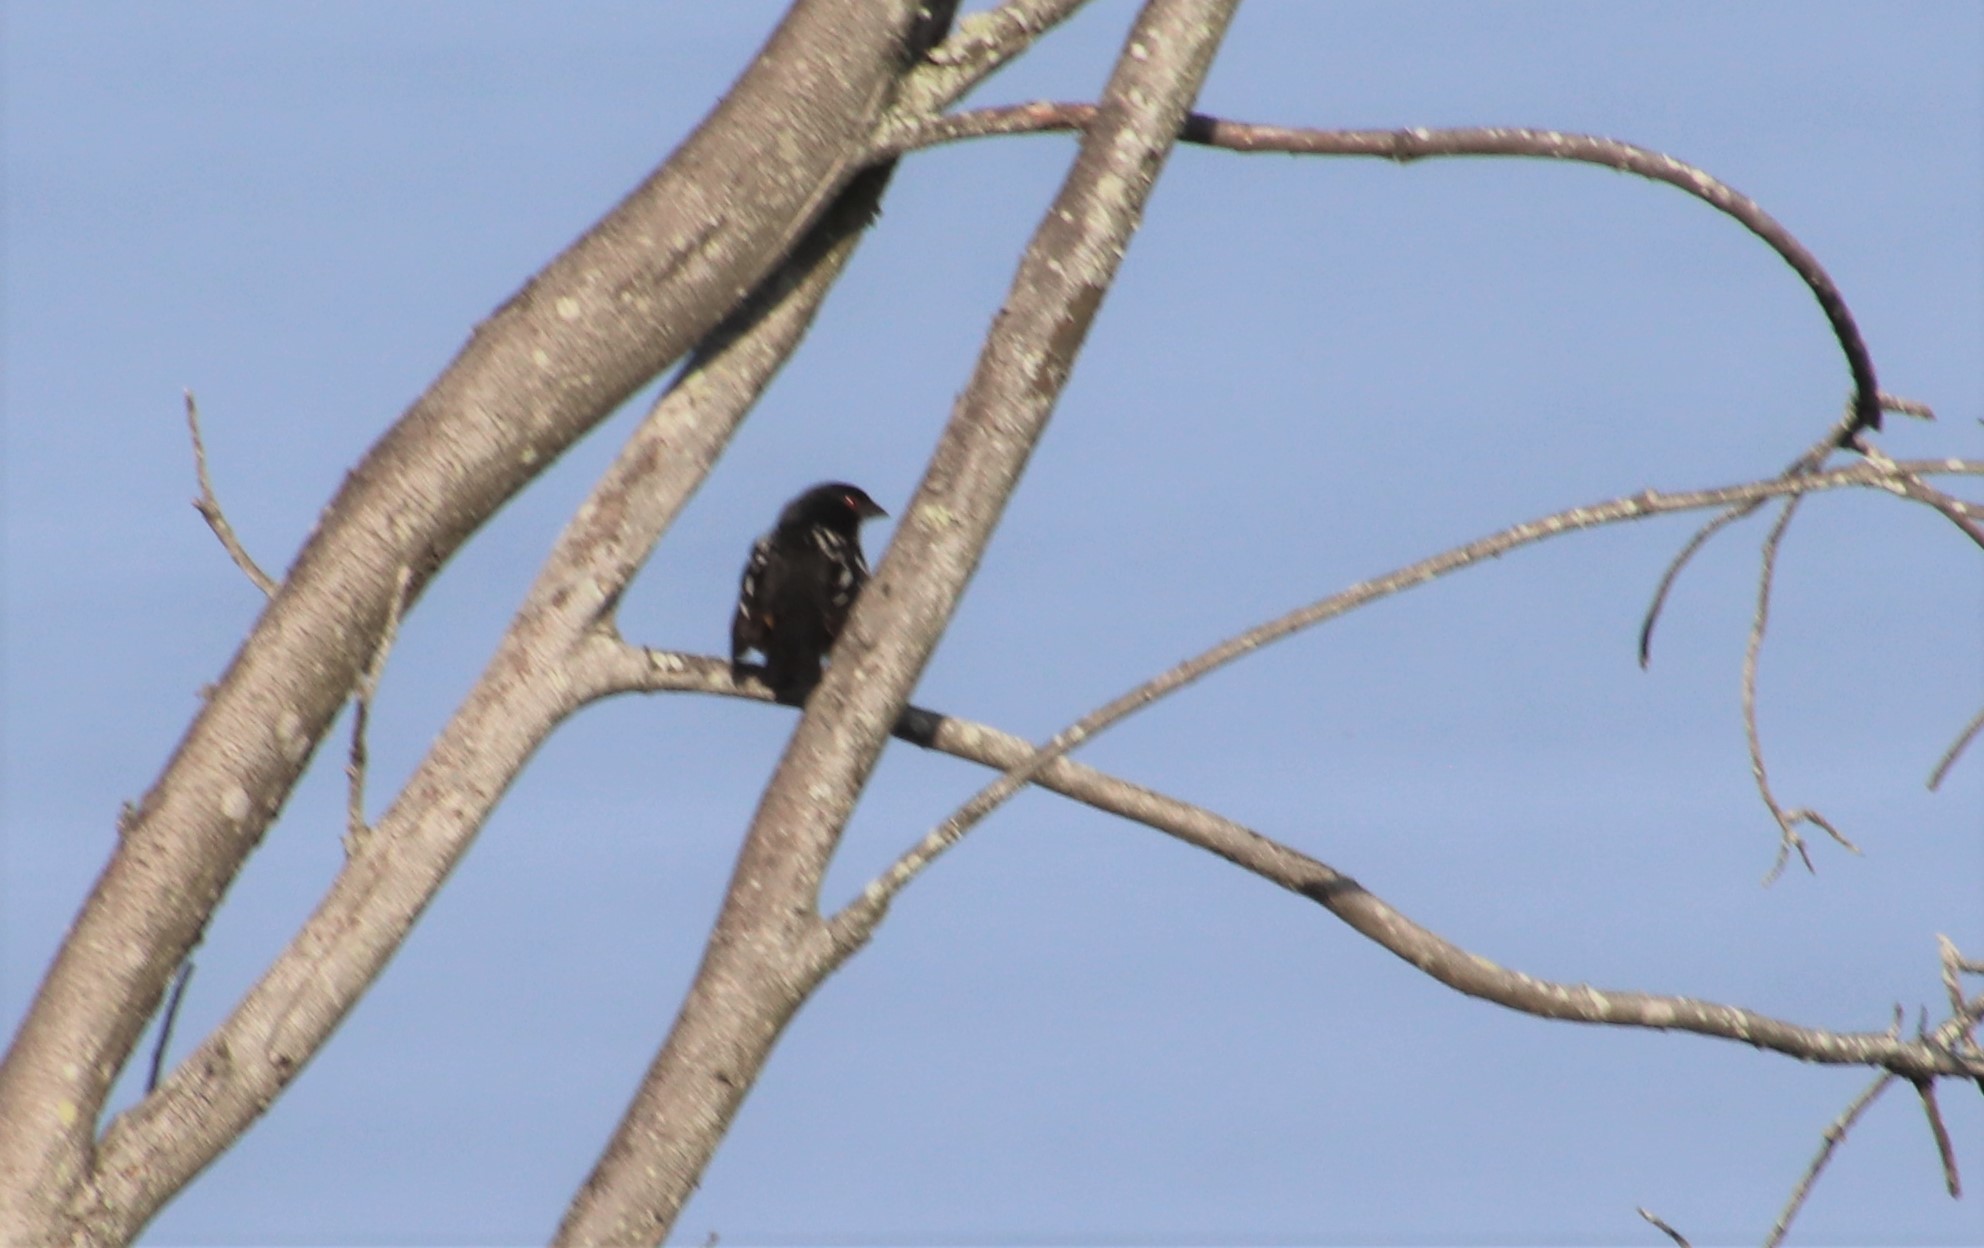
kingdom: Animalia
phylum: Chordata
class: Aves
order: Passeriformes
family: Passerellidae
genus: Pipilo
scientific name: Pipilo maculatus
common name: Spotted towhee
